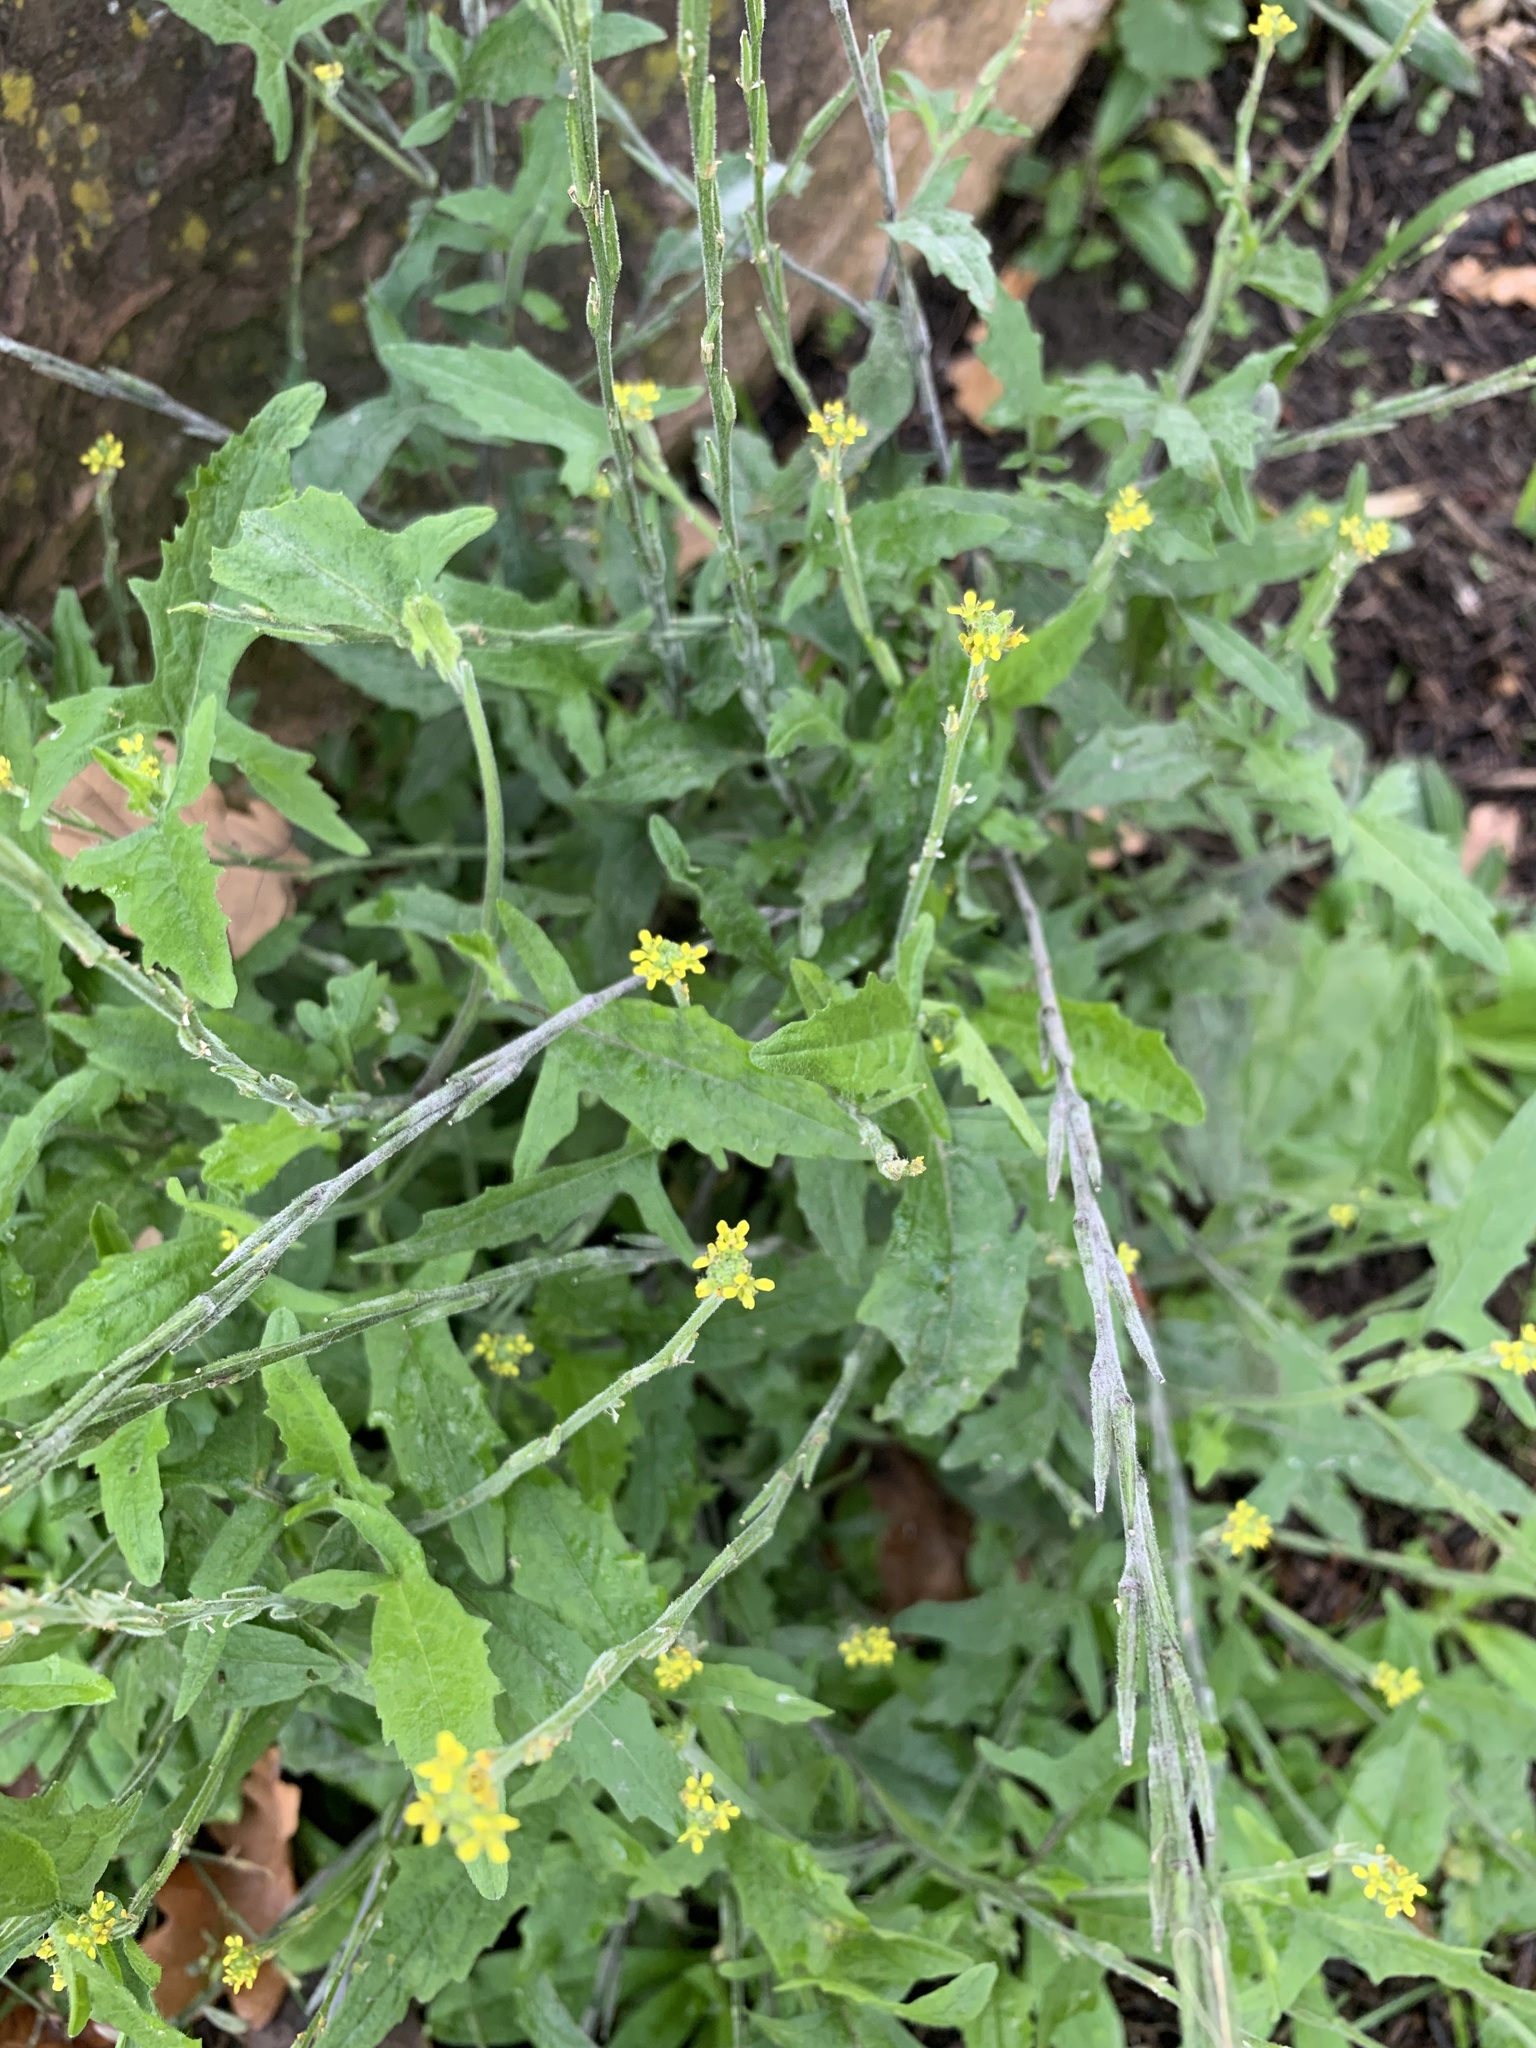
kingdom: Plantae
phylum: Tracheophyta
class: Magnoliopsida
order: Brassicales
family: Brassicaceae
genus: Sisymbrium
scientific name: Sisymbrium officinale
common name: Hedge mustard
